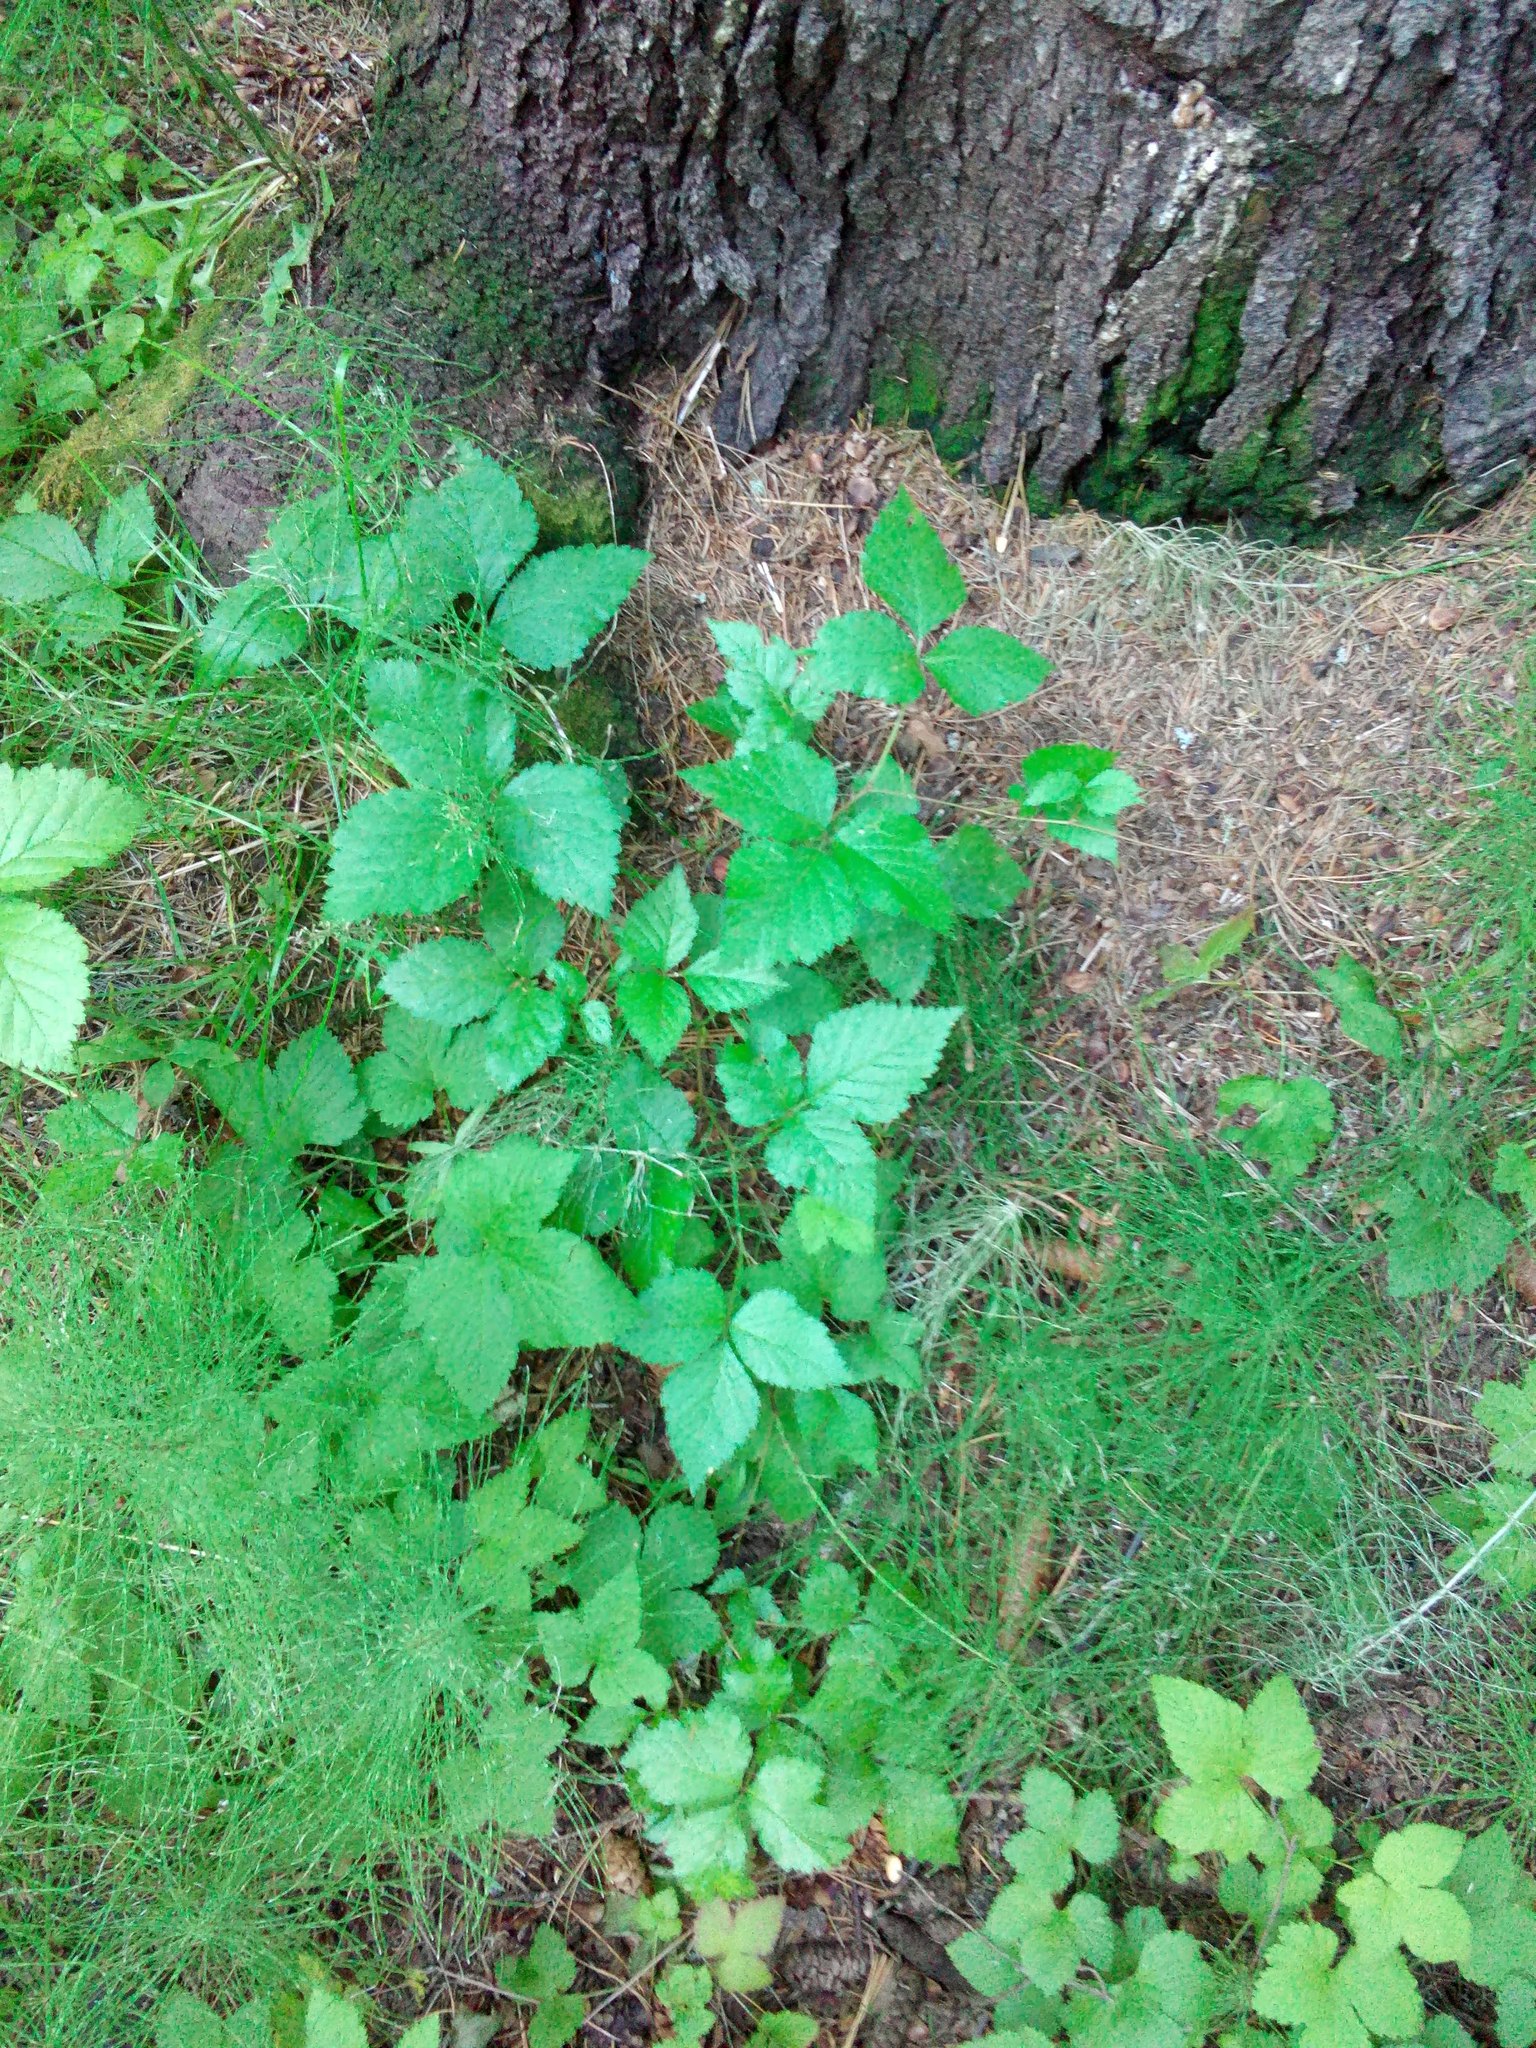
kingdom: Plantae
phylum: Tracheophyta
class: Magnoliopsida
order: Rosales
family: Rosaceae
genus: Rubus
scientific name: Rubus saxatilis
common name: Stone bramble
